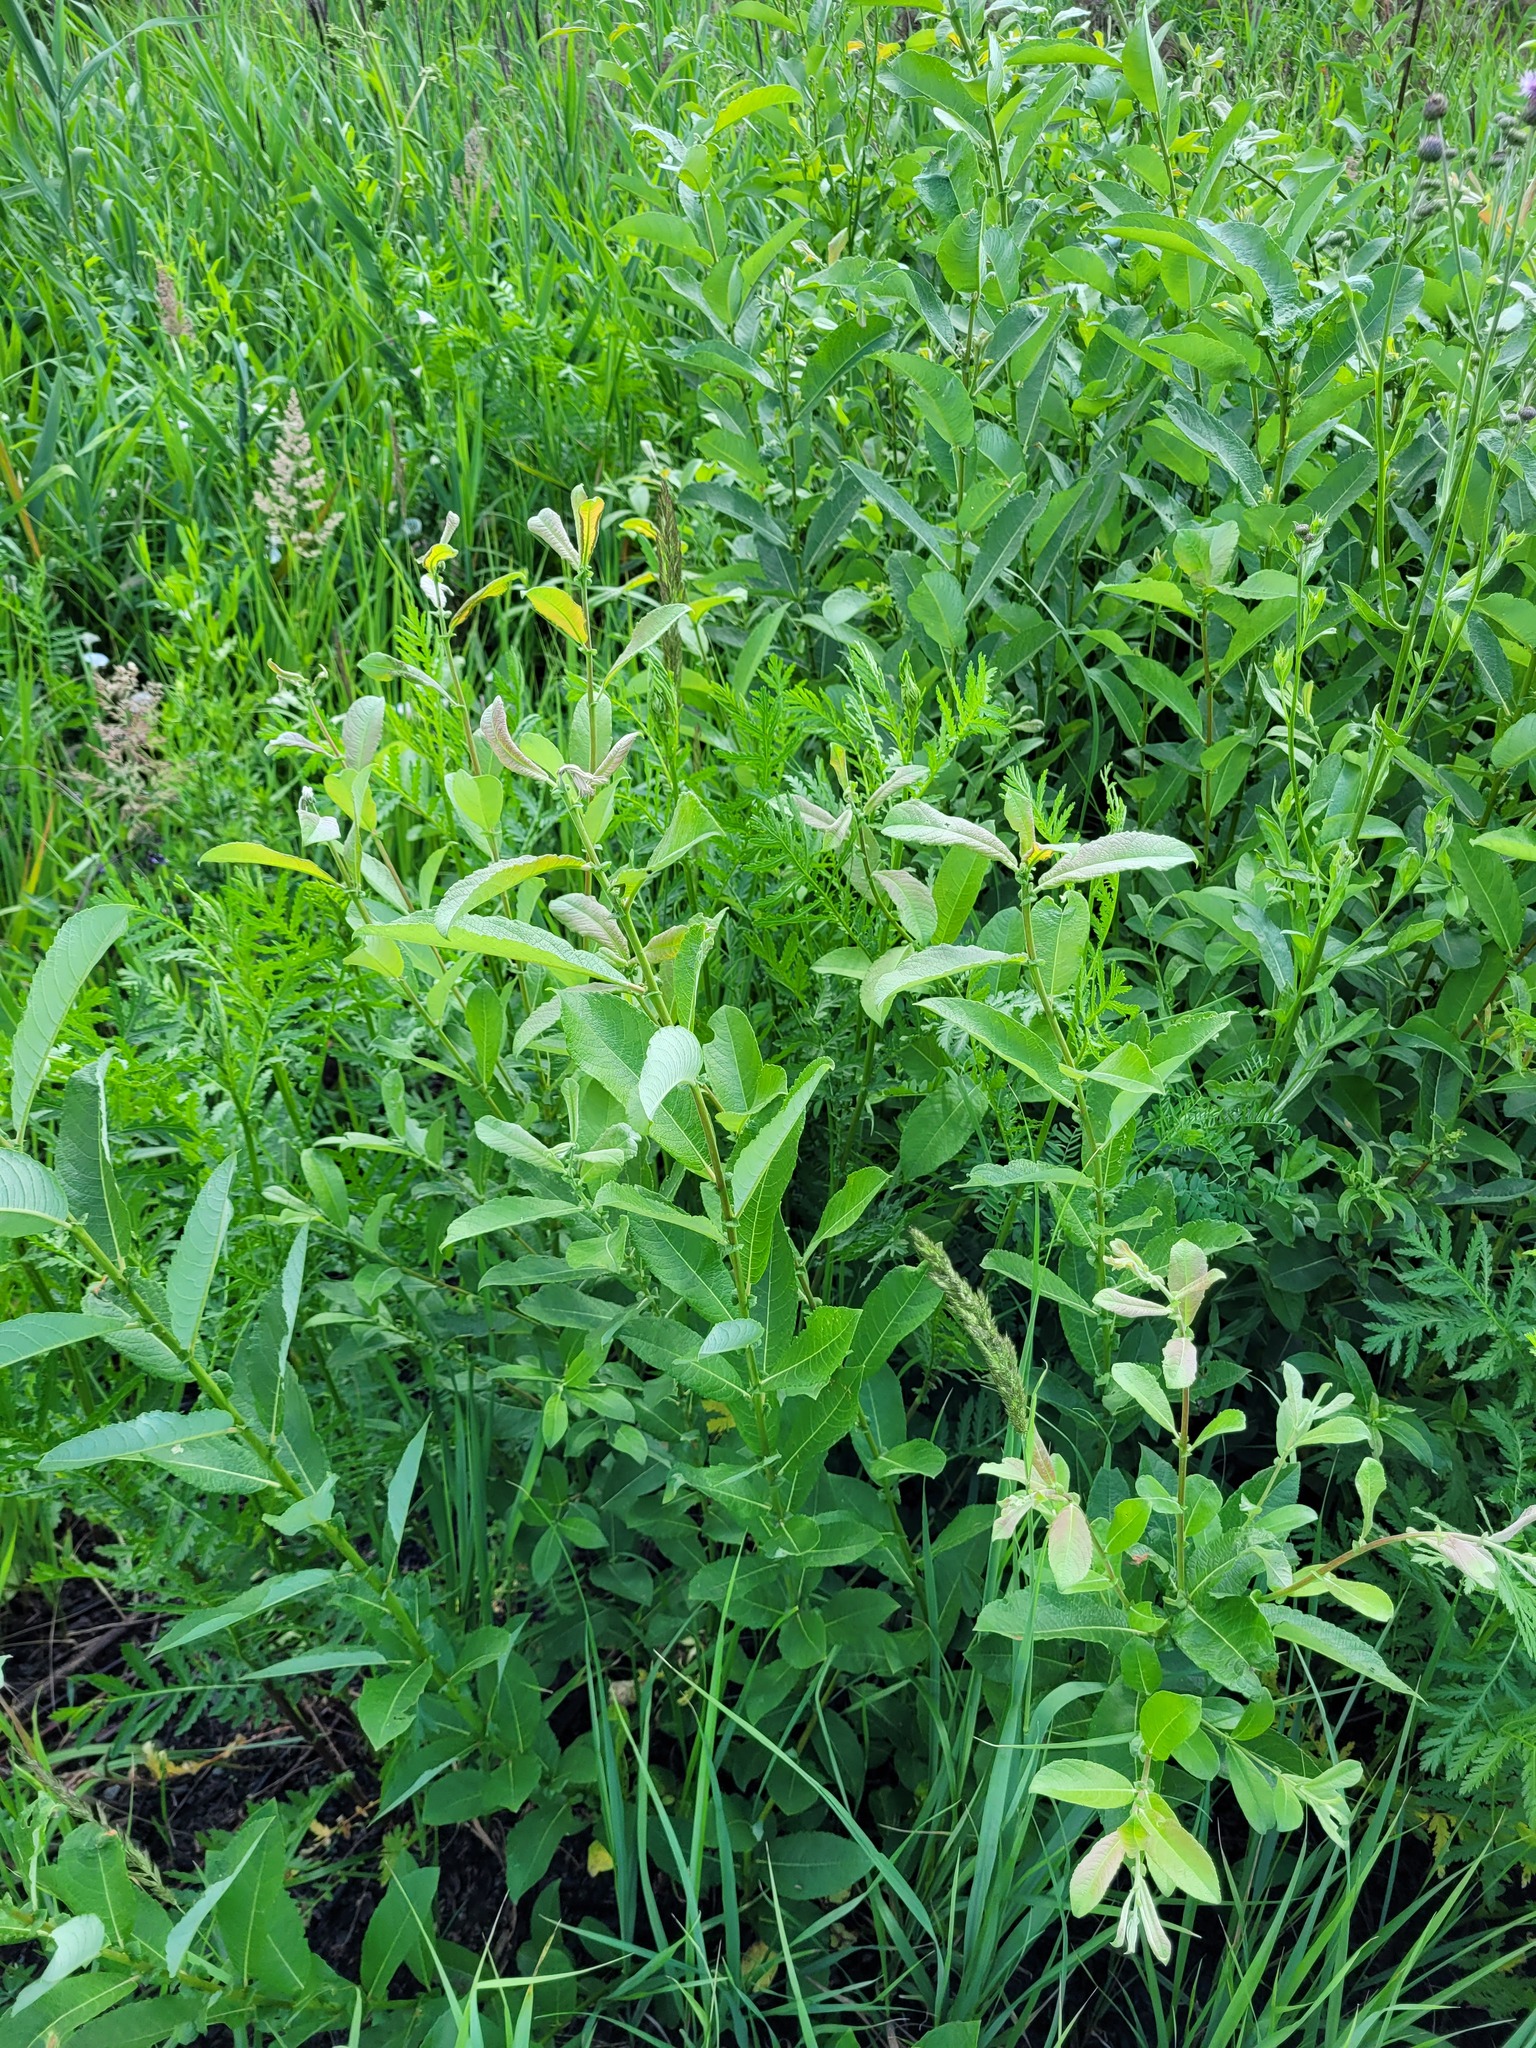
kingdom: Plantae
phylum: Tracheophyta
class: Magnoliopsida
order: Malpighiales
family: Salicaceae
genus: Salix
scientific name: Salix cinerea
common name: Common sallow
